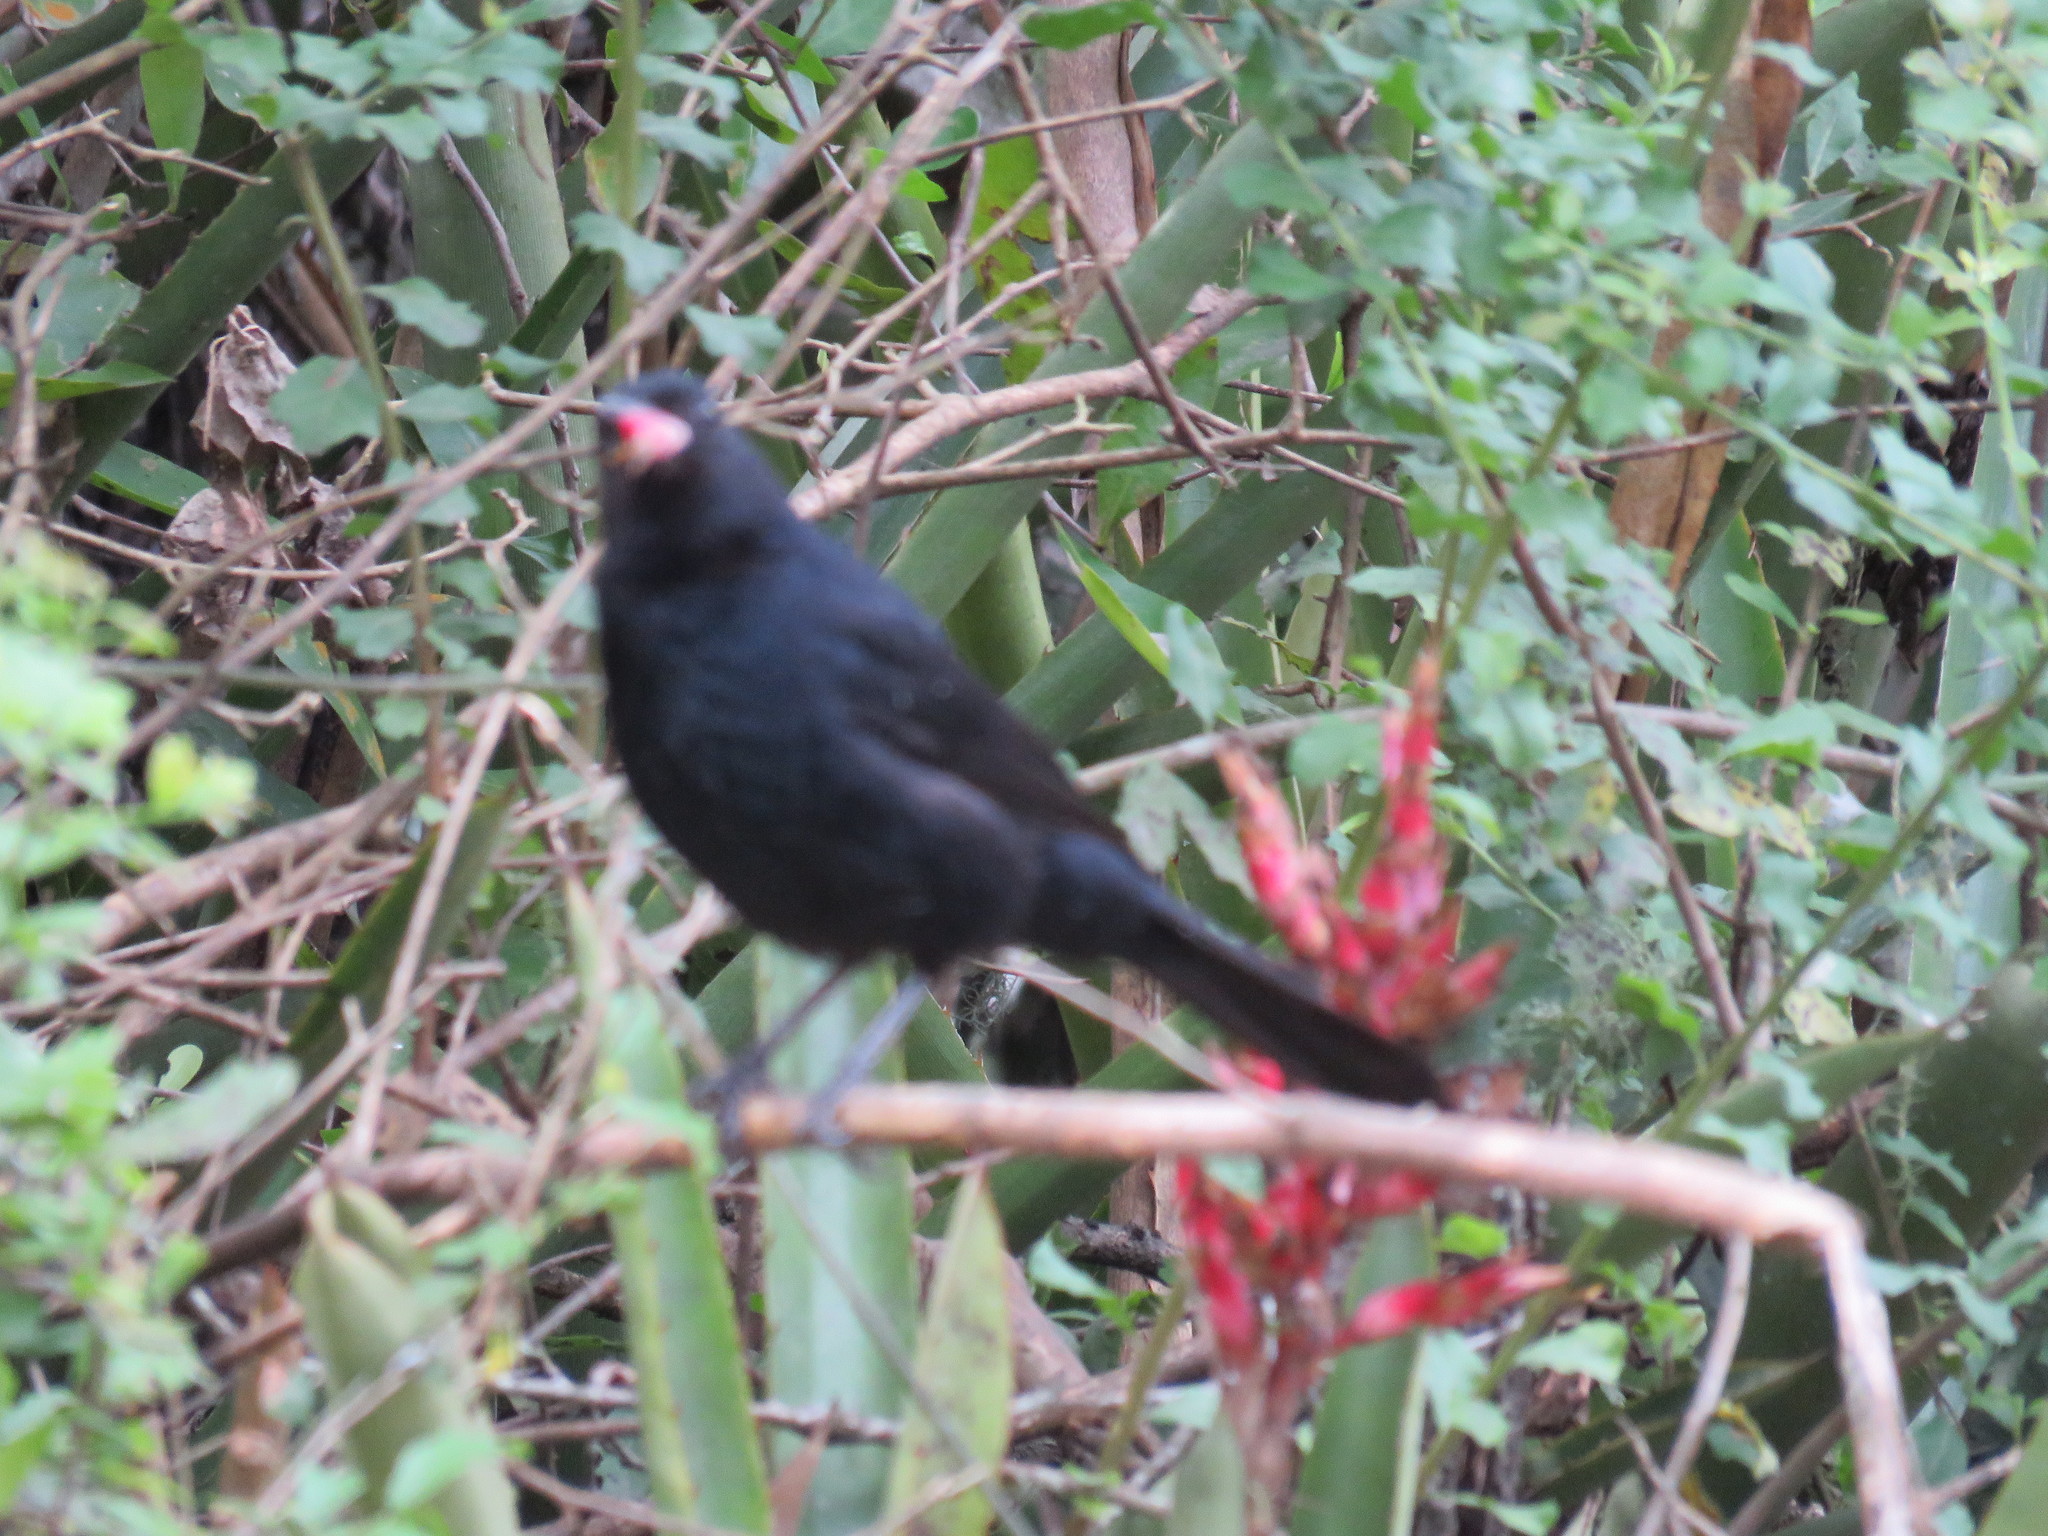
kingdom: Animalia
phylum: Chordata
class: Aves
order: Passeriformes
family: Thraupidae
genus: Tachyphonus
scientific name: Tachyphonus rufus
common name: White-lined tanager
